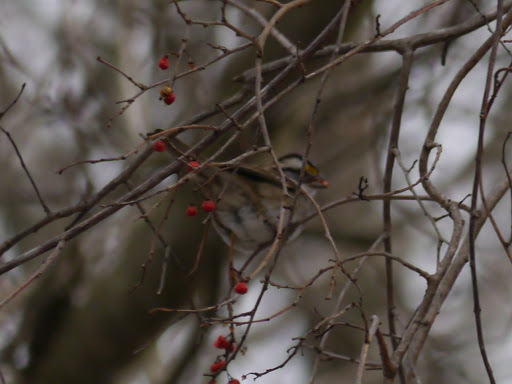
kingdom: Animalia
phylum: Chordata
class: Aves
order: Passeriformes
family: Passerellidae
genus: Zonotrichia
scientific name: Zonotrichia albicollis
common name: White-throated sparrow
